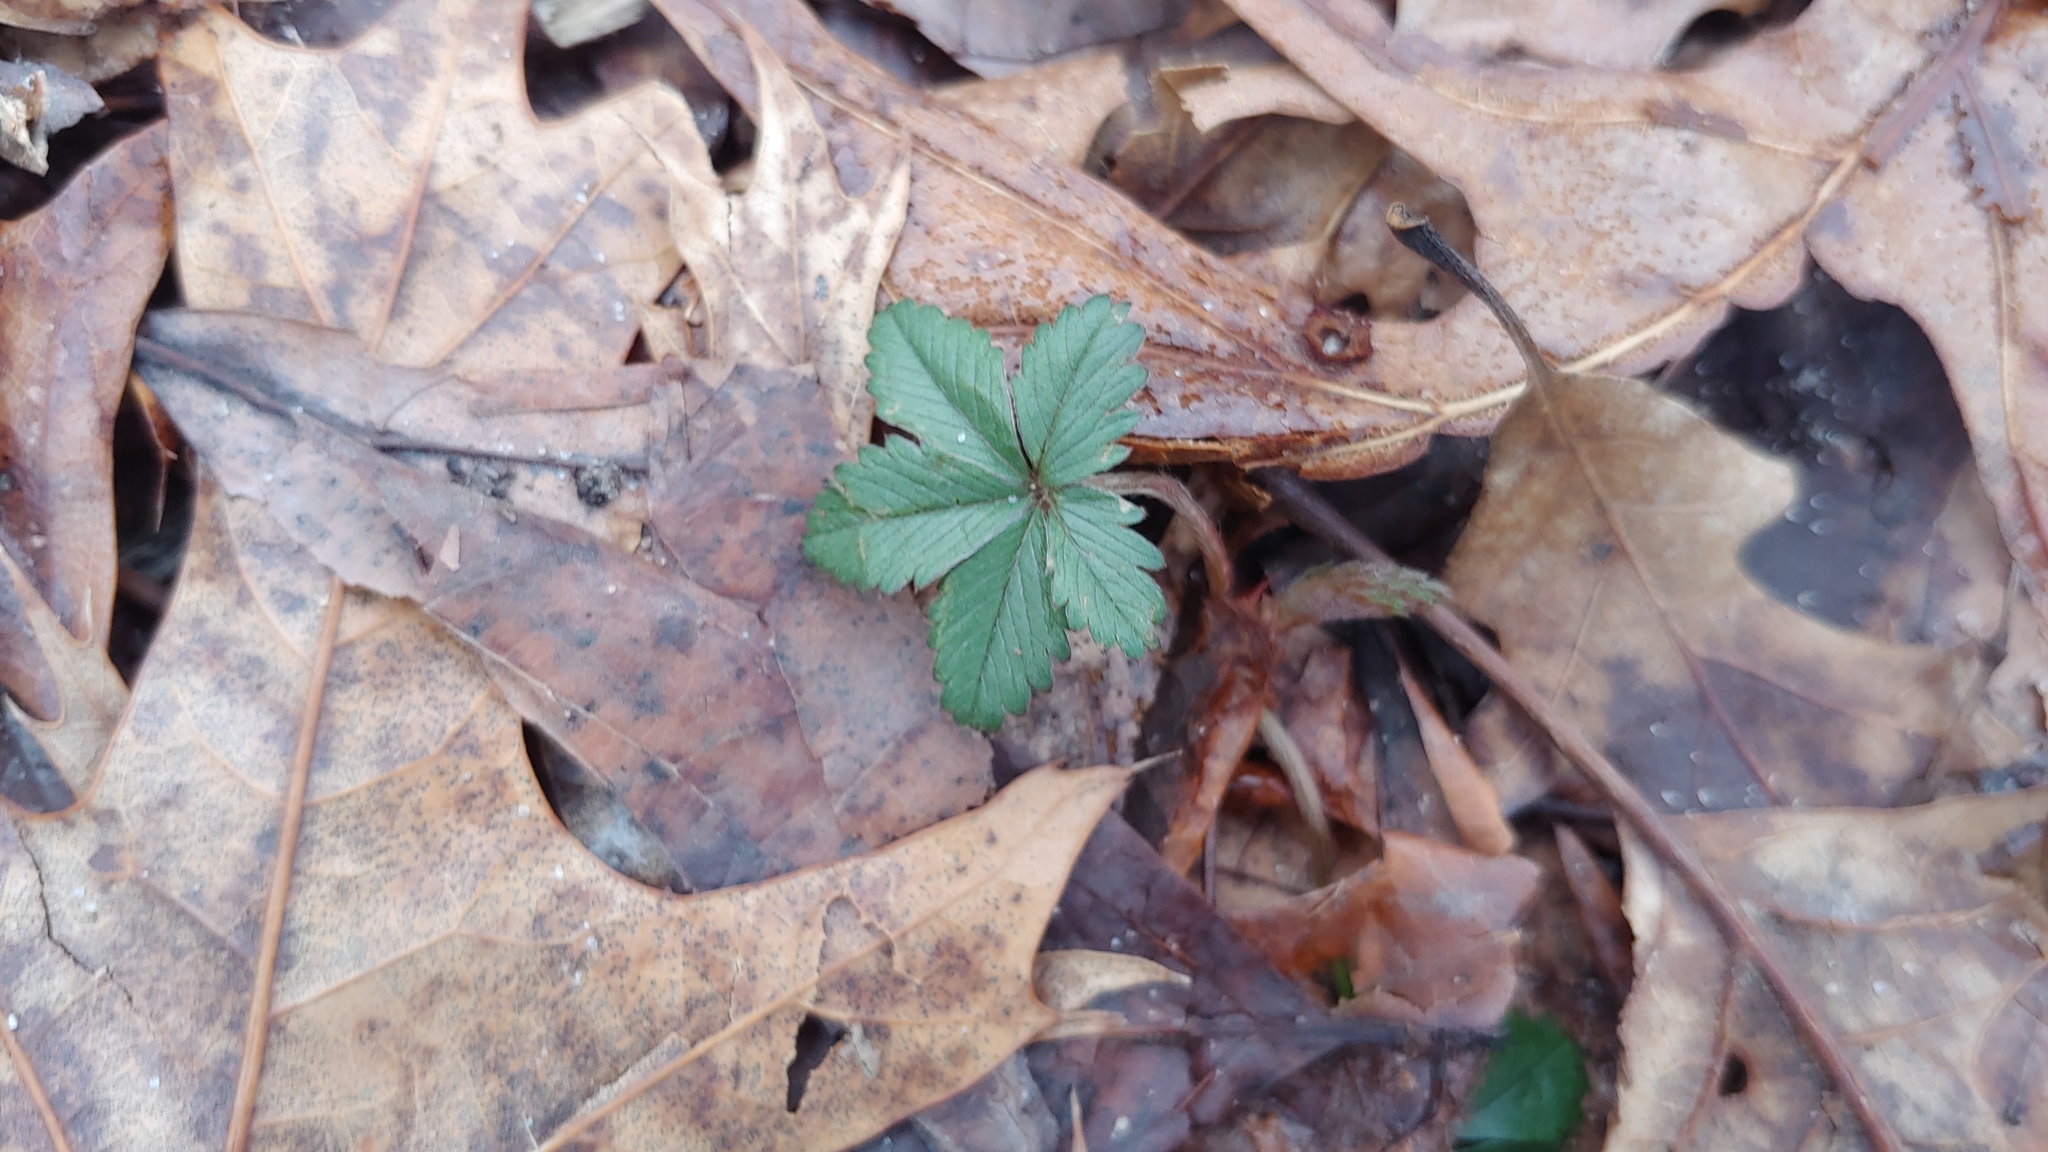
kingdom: Plantae
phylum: Tracheophyta
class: Magnoliopsida
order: Rosales
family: Rosaceae
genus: Potentilla
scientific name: Potentilla simplex
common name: Old field cinquefoil
